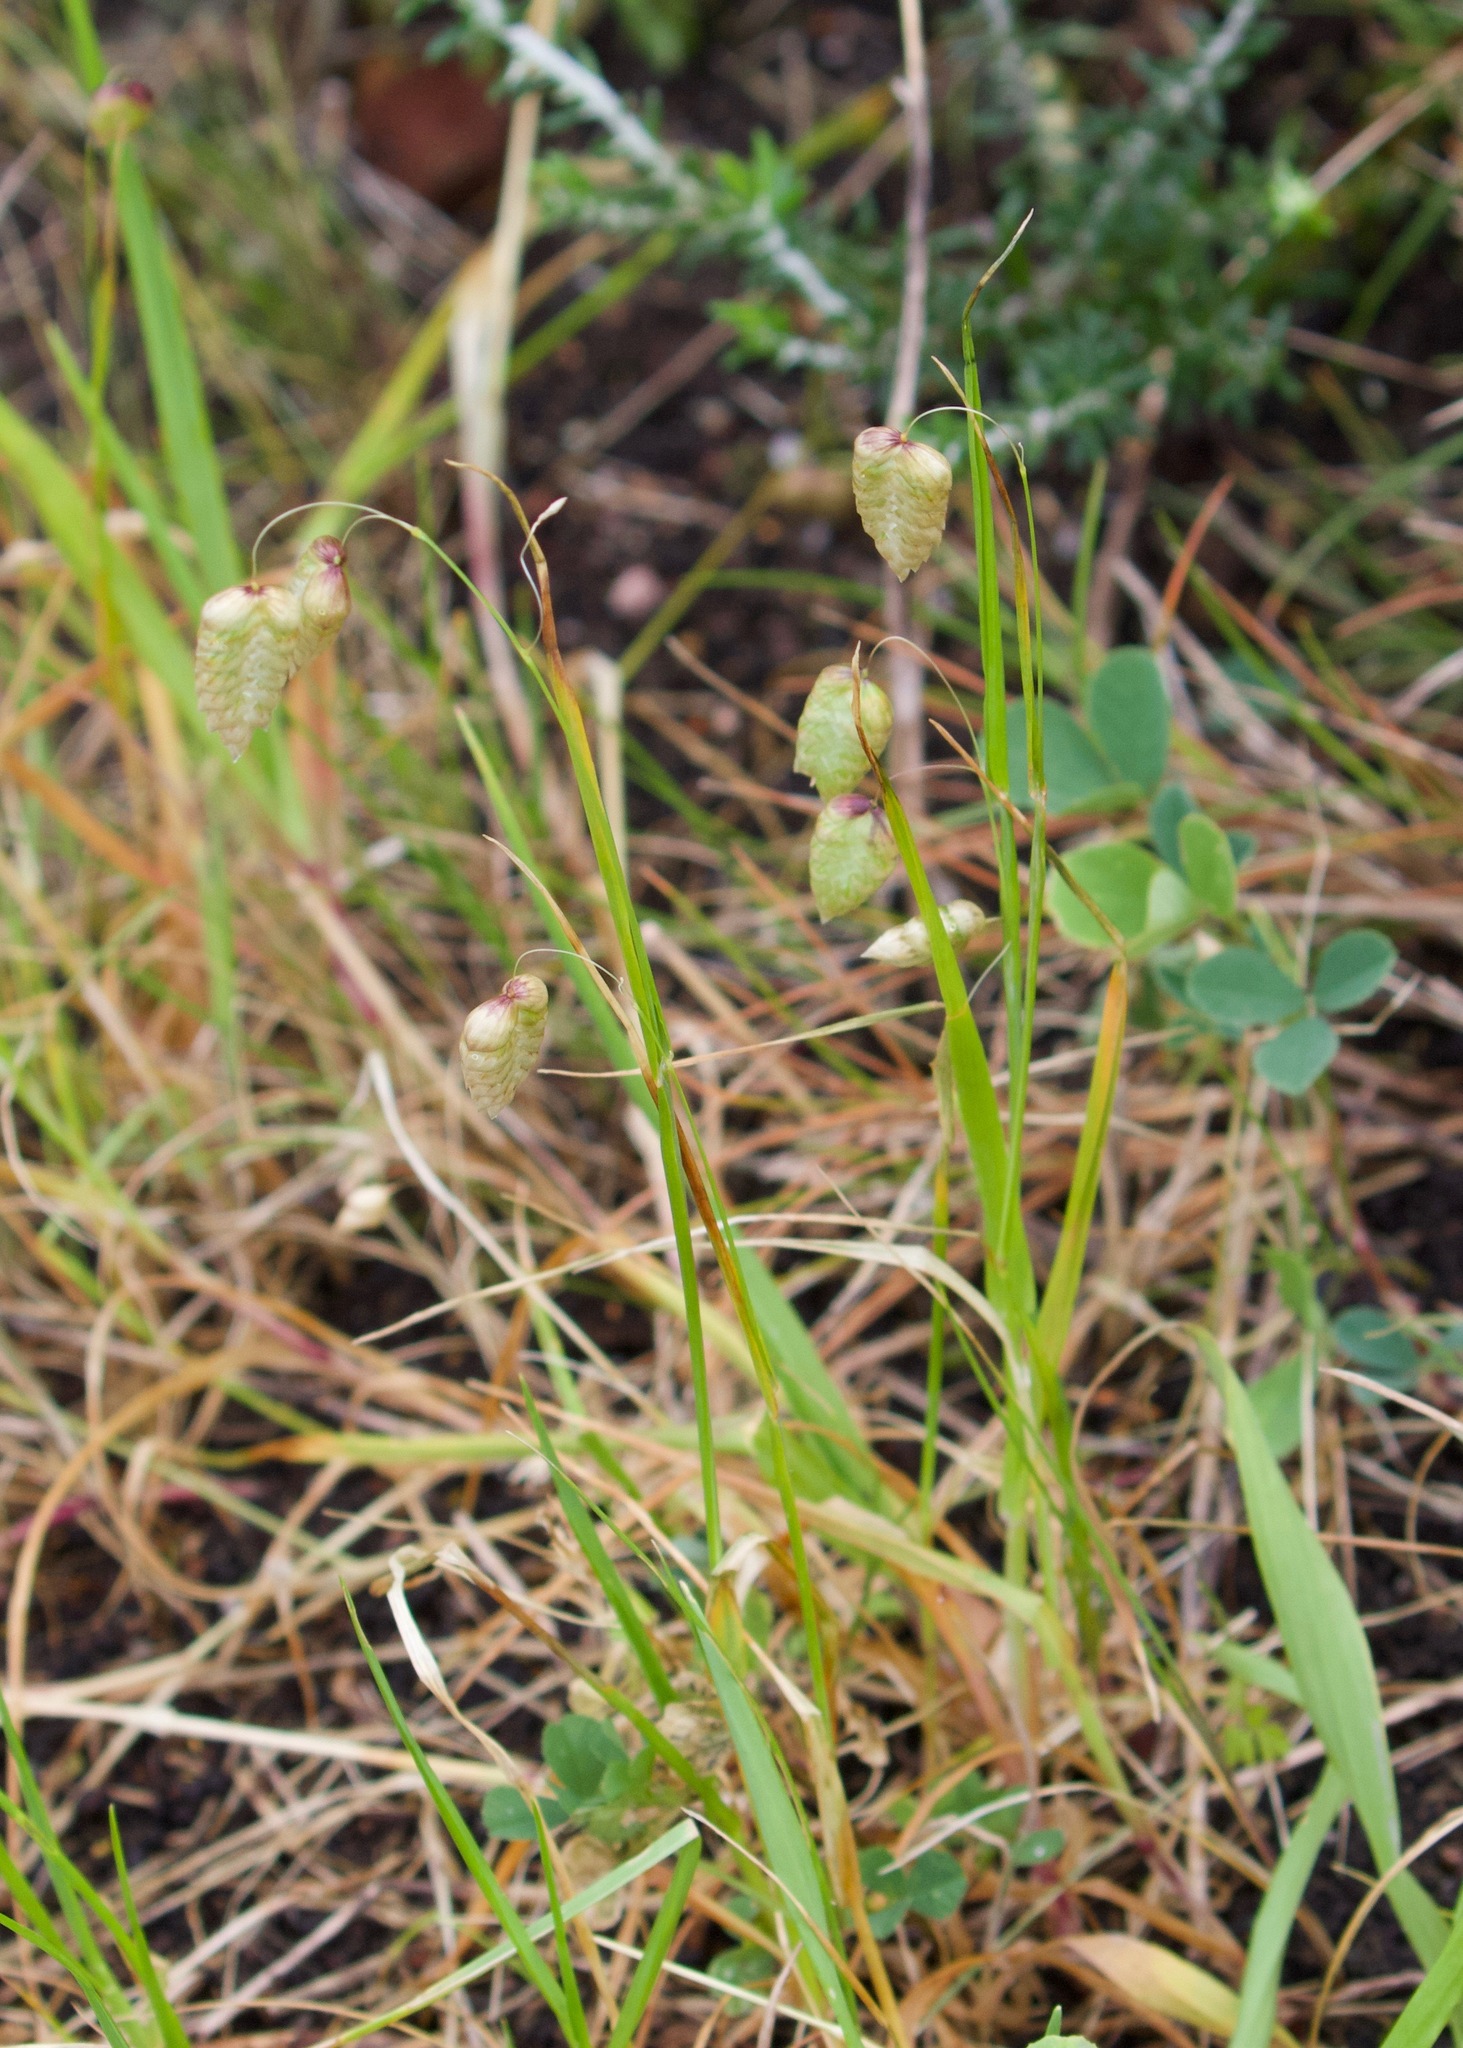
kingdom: Plantae
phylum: Tracheophyta
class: Liliopsida
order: Poales
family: Poaceae
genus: Briza
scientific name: Briza maxima
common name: Big quakinggrass
